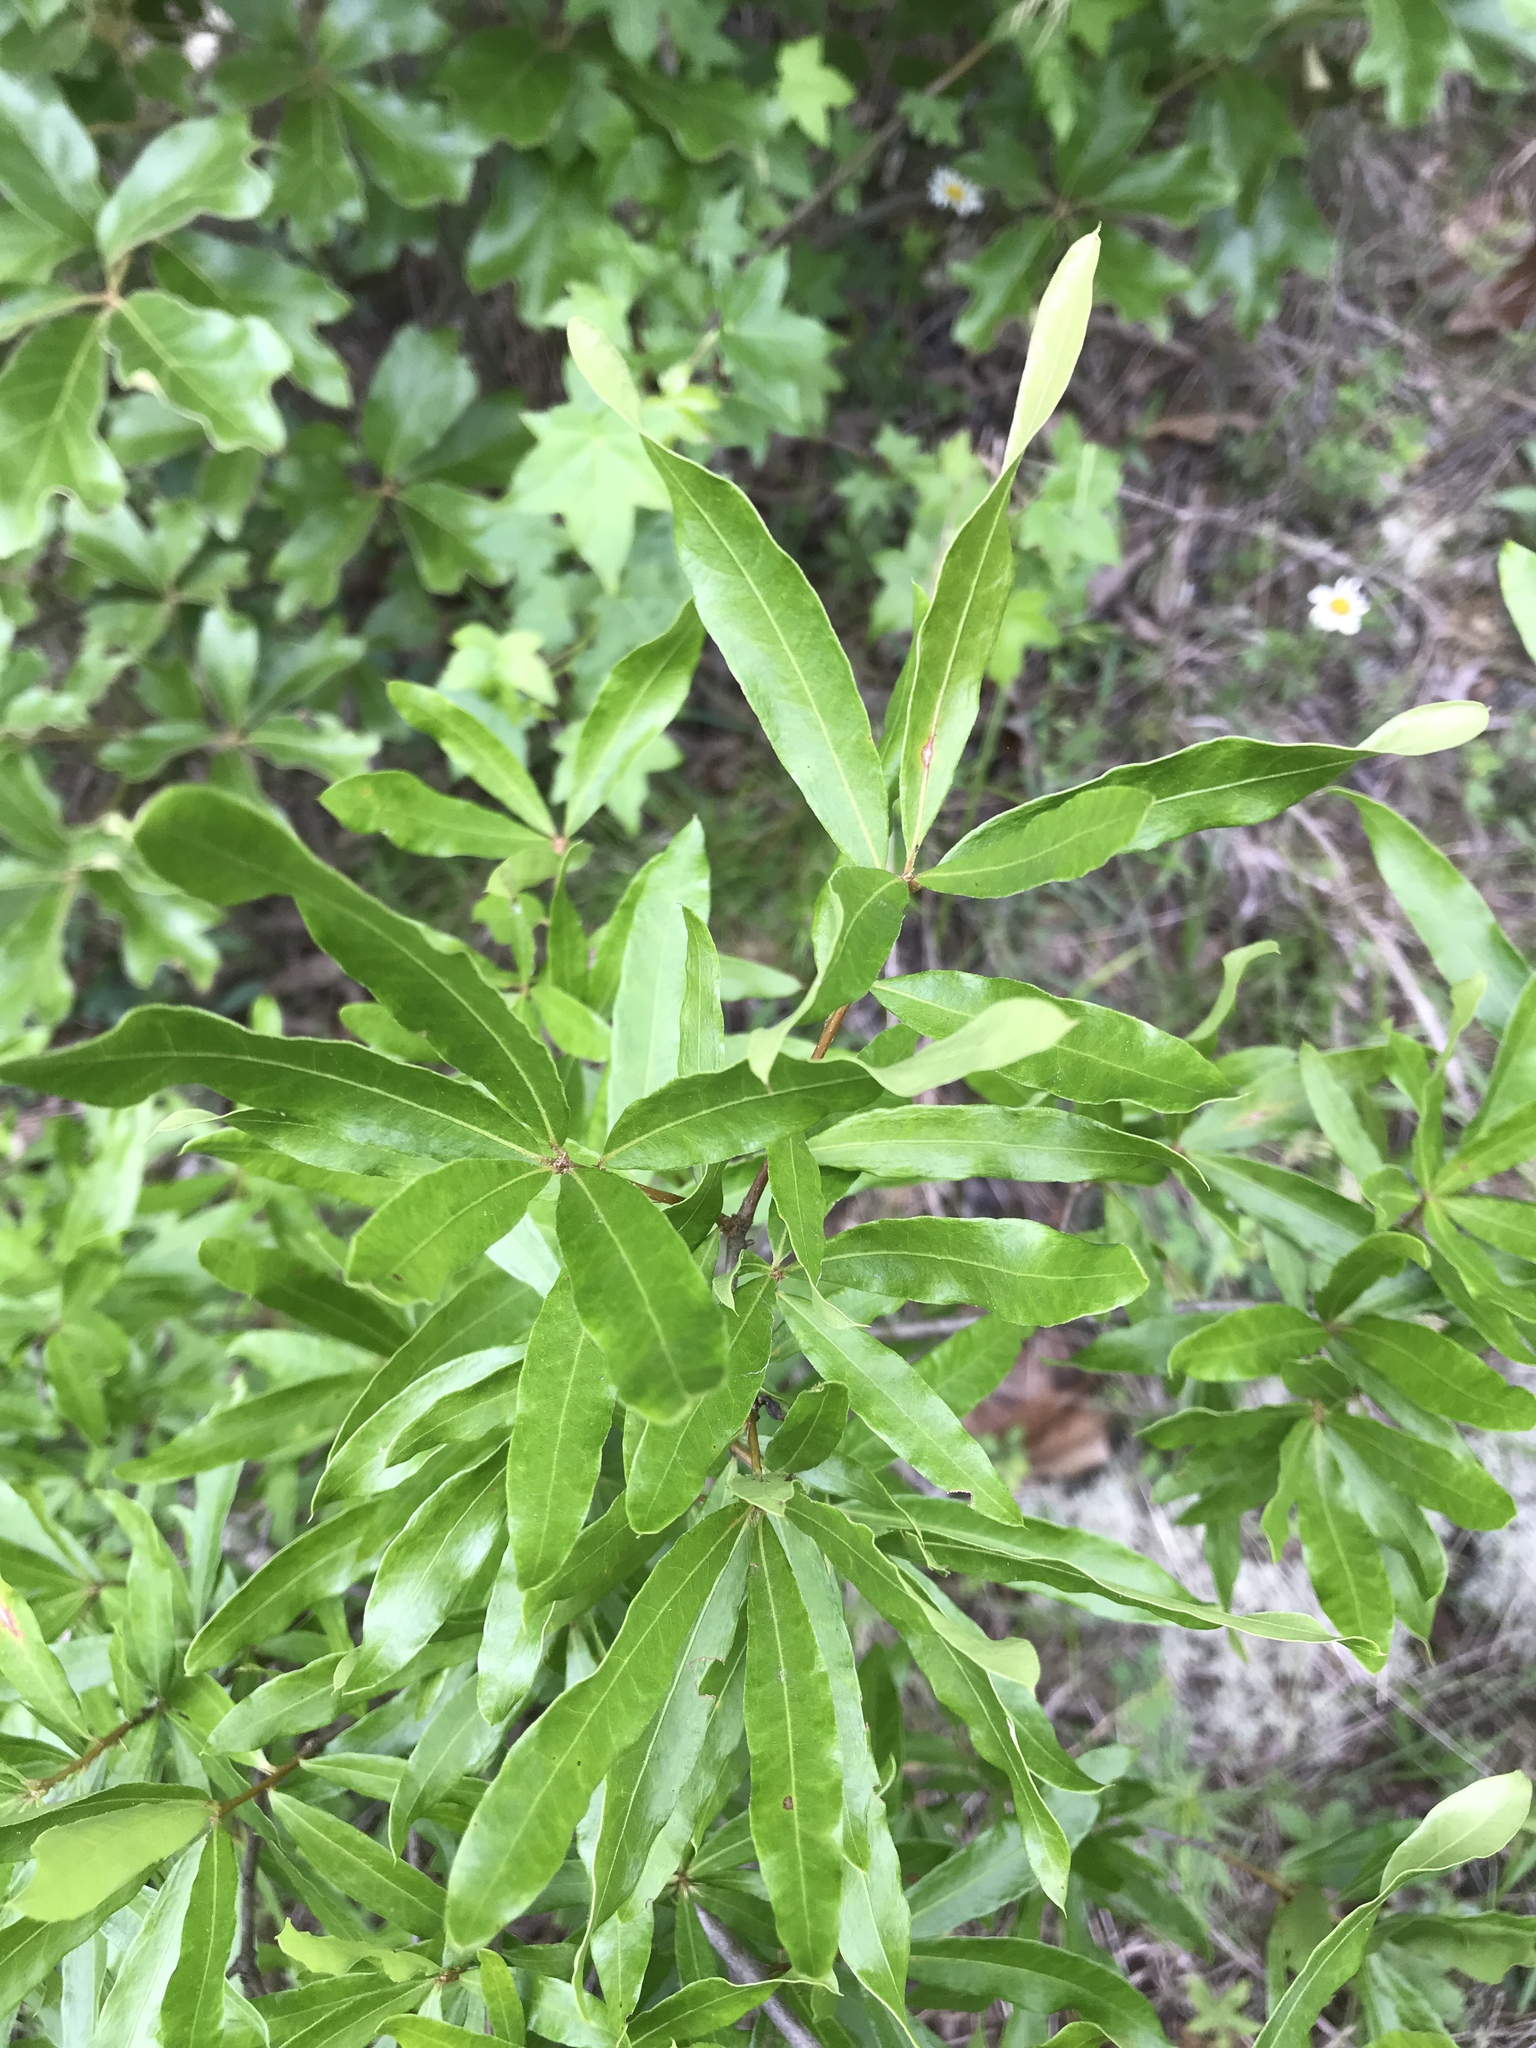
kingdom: Plantae
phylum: Tracheophyta
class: Magnoliopsida
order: Fagales
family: Fagaceae
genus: Quercus
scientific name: Quercus phellos
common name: Willow oak
